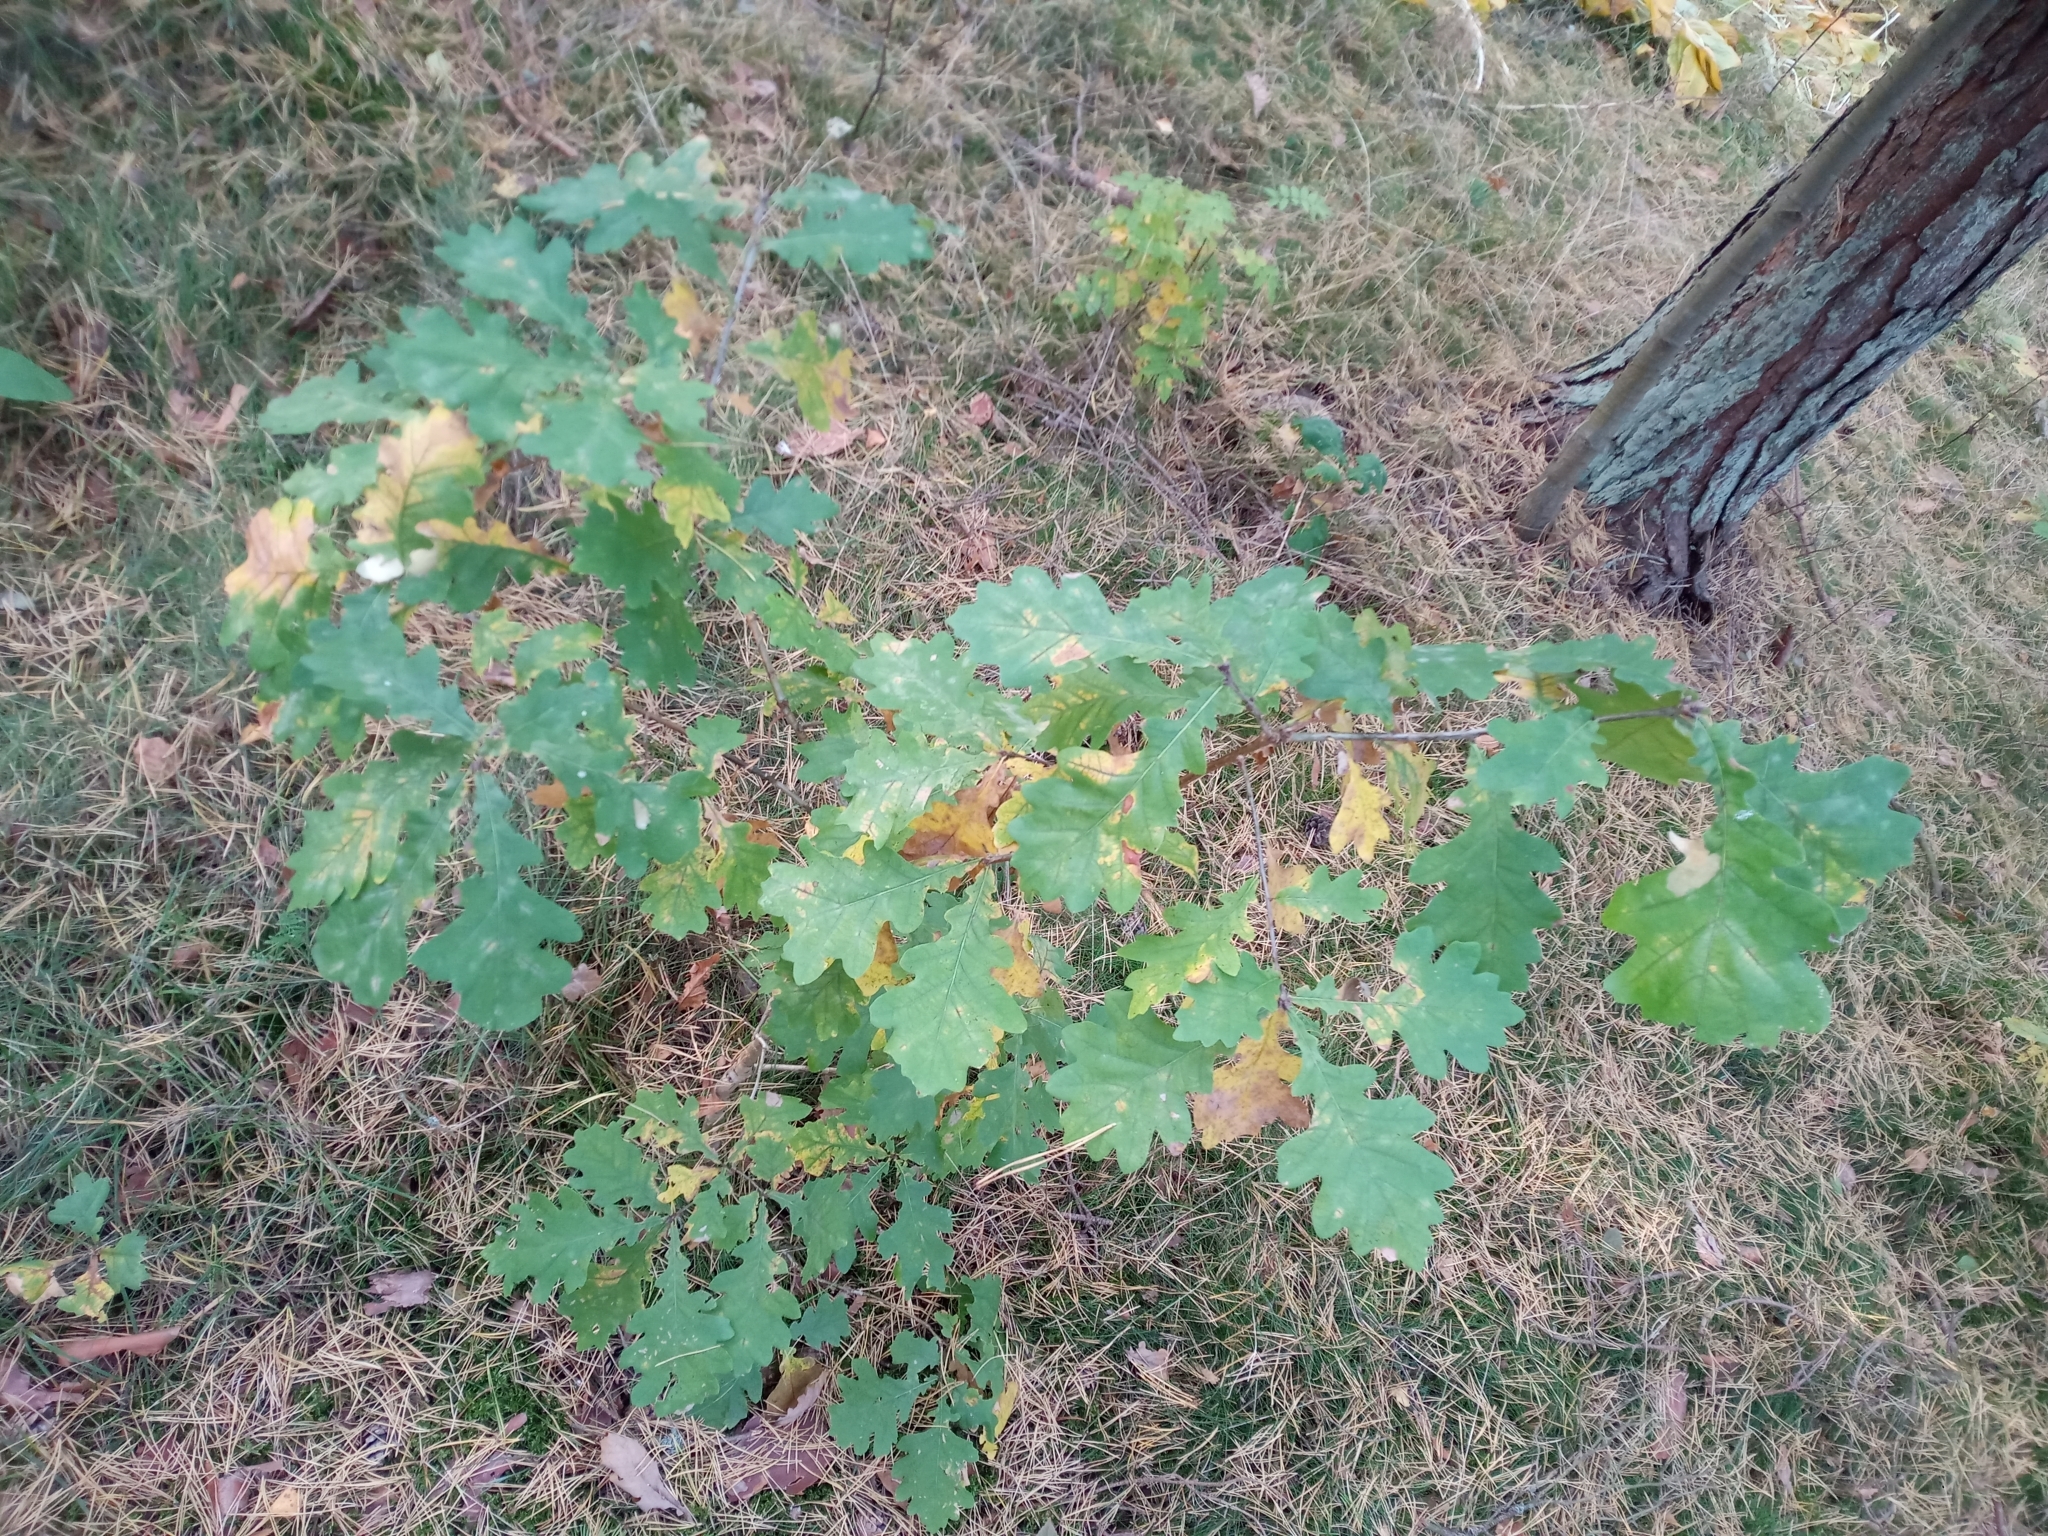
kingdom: Plantae
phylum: Tracheophyta
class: Magnoliopsida
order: Fagales
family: Fagaceae
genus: Quercus
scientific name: Quercus robur
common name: Pedunculate oak
